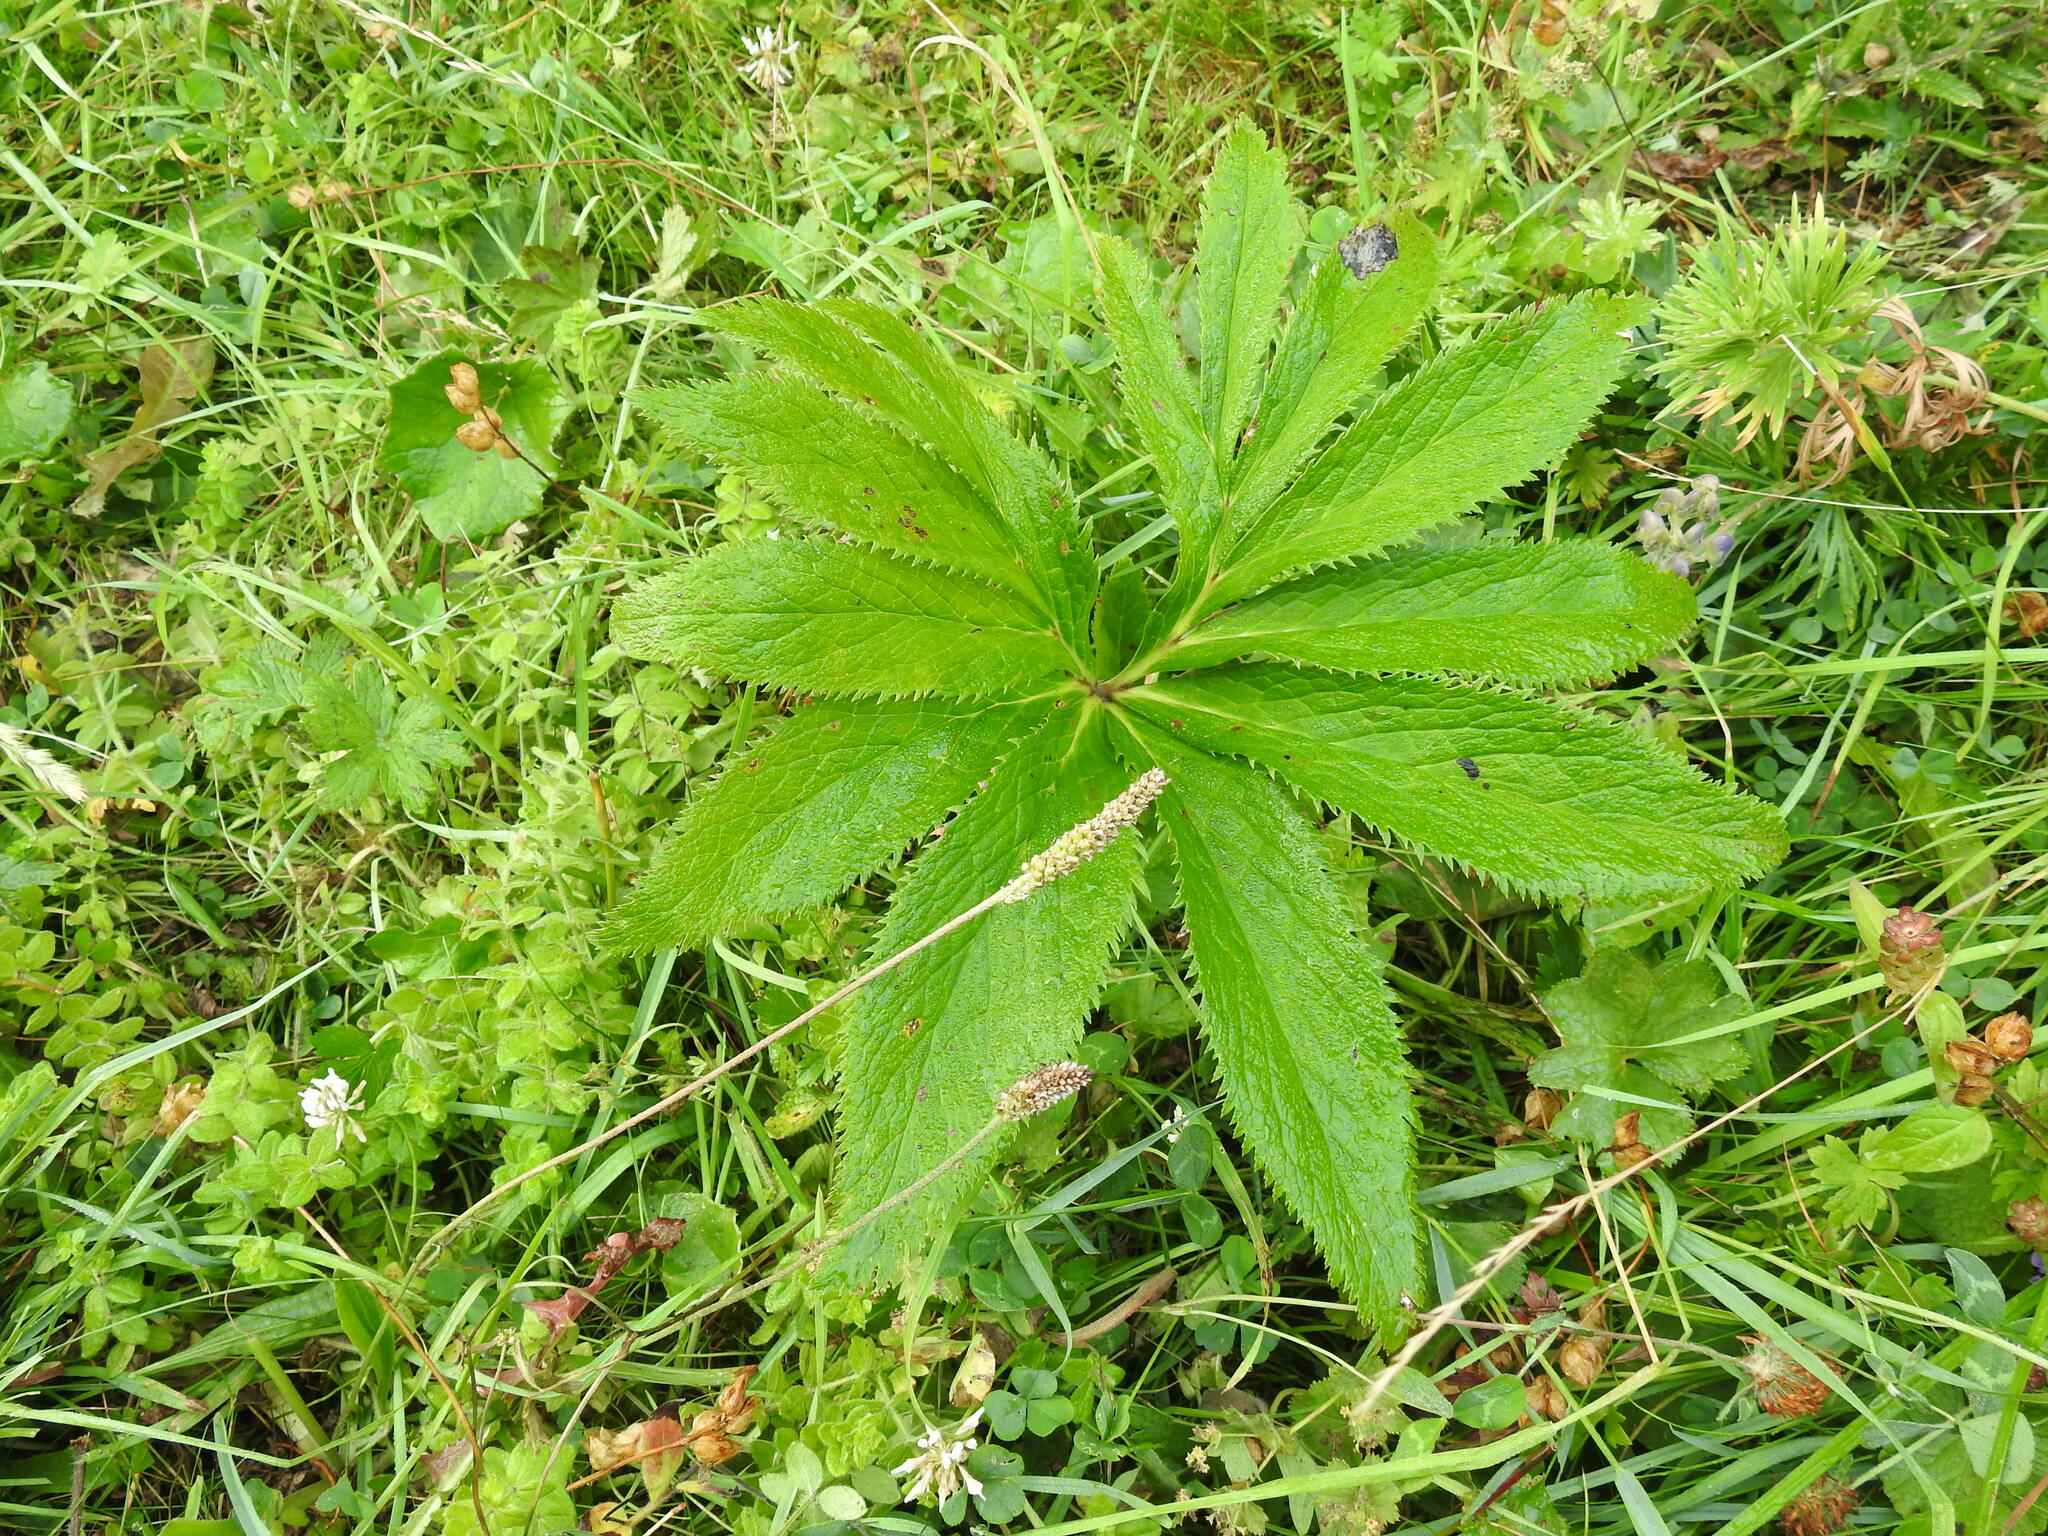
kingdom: Plantae
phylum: Tracheophyta
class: Magnoliopsida
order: Ranunculales
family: Ranunculaceae
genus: Helleborus
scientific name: Helleborus viridis
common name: Green hellebore
